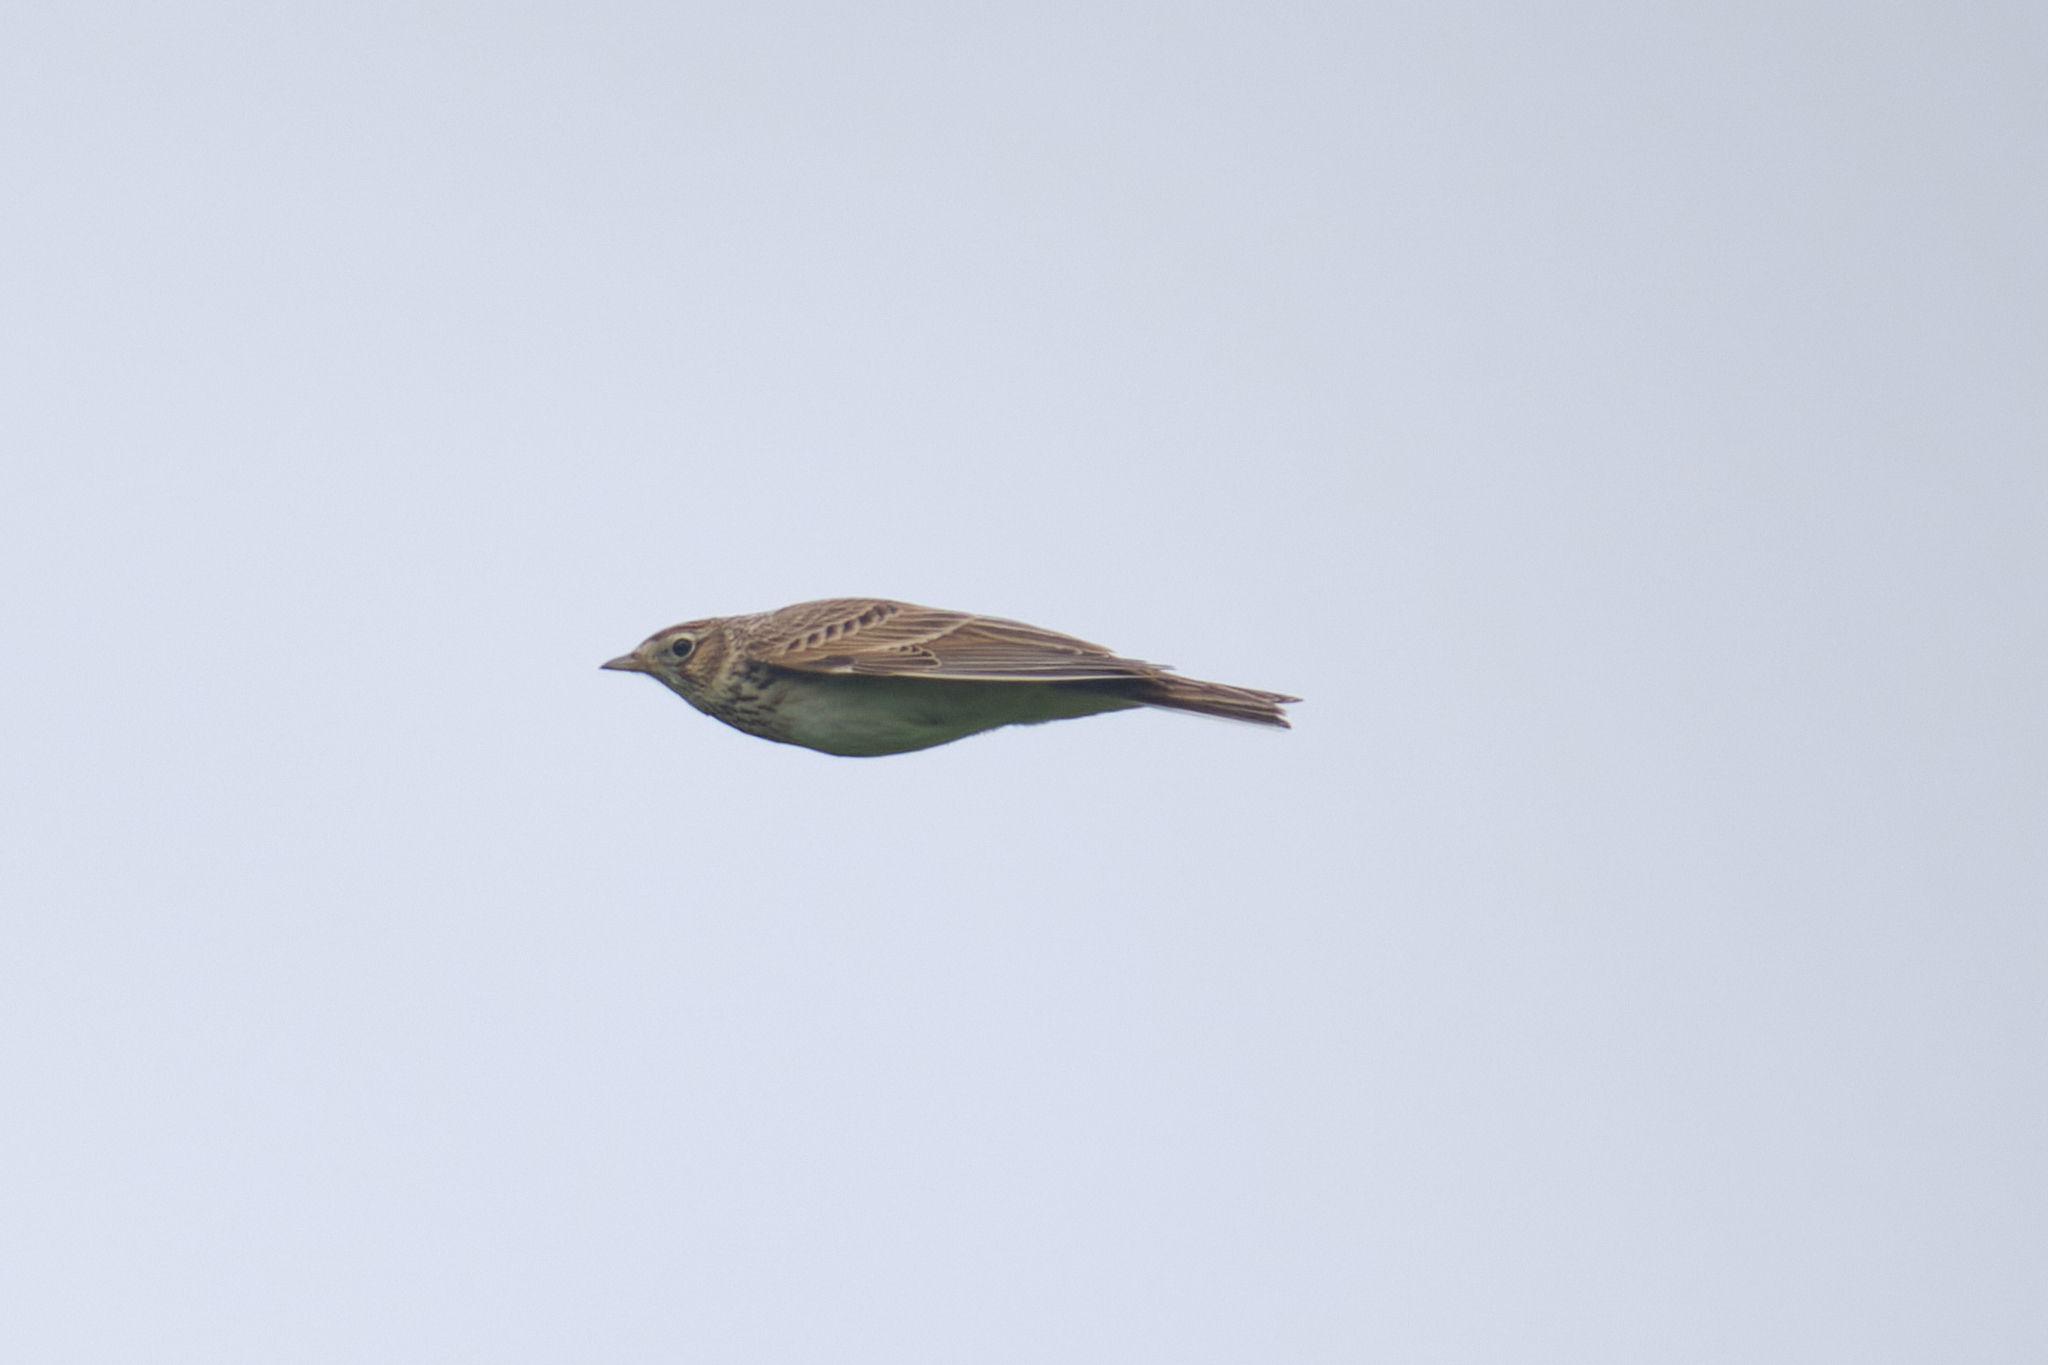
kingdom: Animalia
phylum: Chordata
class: Aves
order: Passeriformes
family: Alaudidae
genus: Alauda
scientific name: Alauda arvensis
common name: Eurasian skylark
